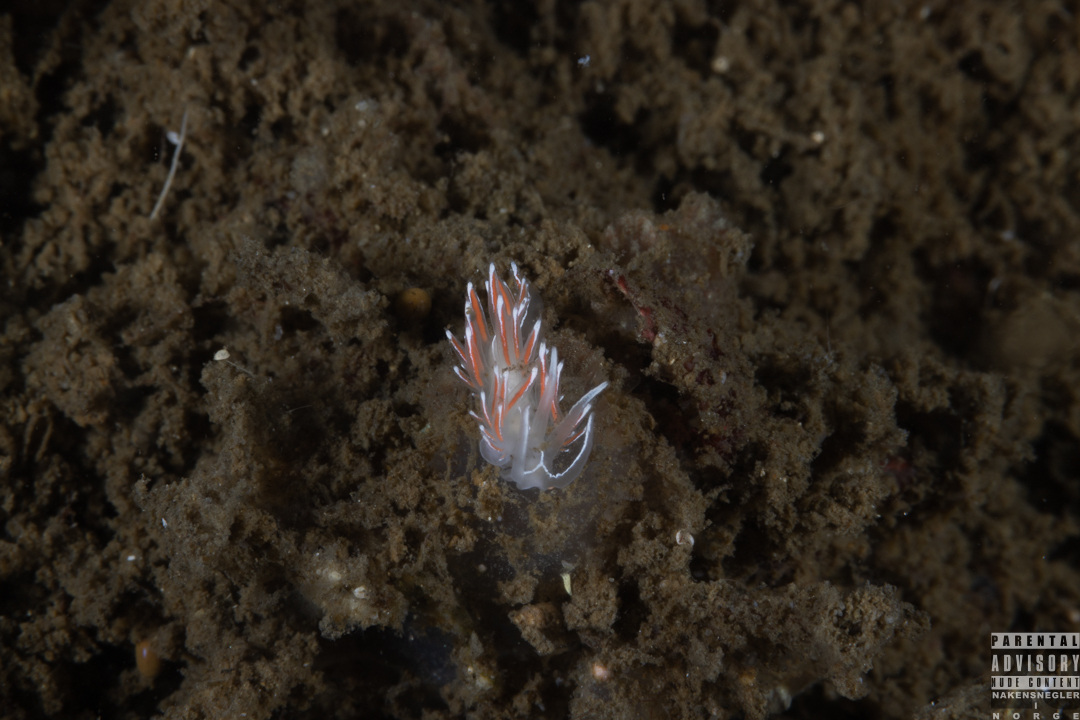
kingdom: Animalia
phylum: Mollusca
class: Gastropoda
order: Nudibranchia
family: Coryphellidae
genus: Coryphella
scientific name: Coryphella lineata
